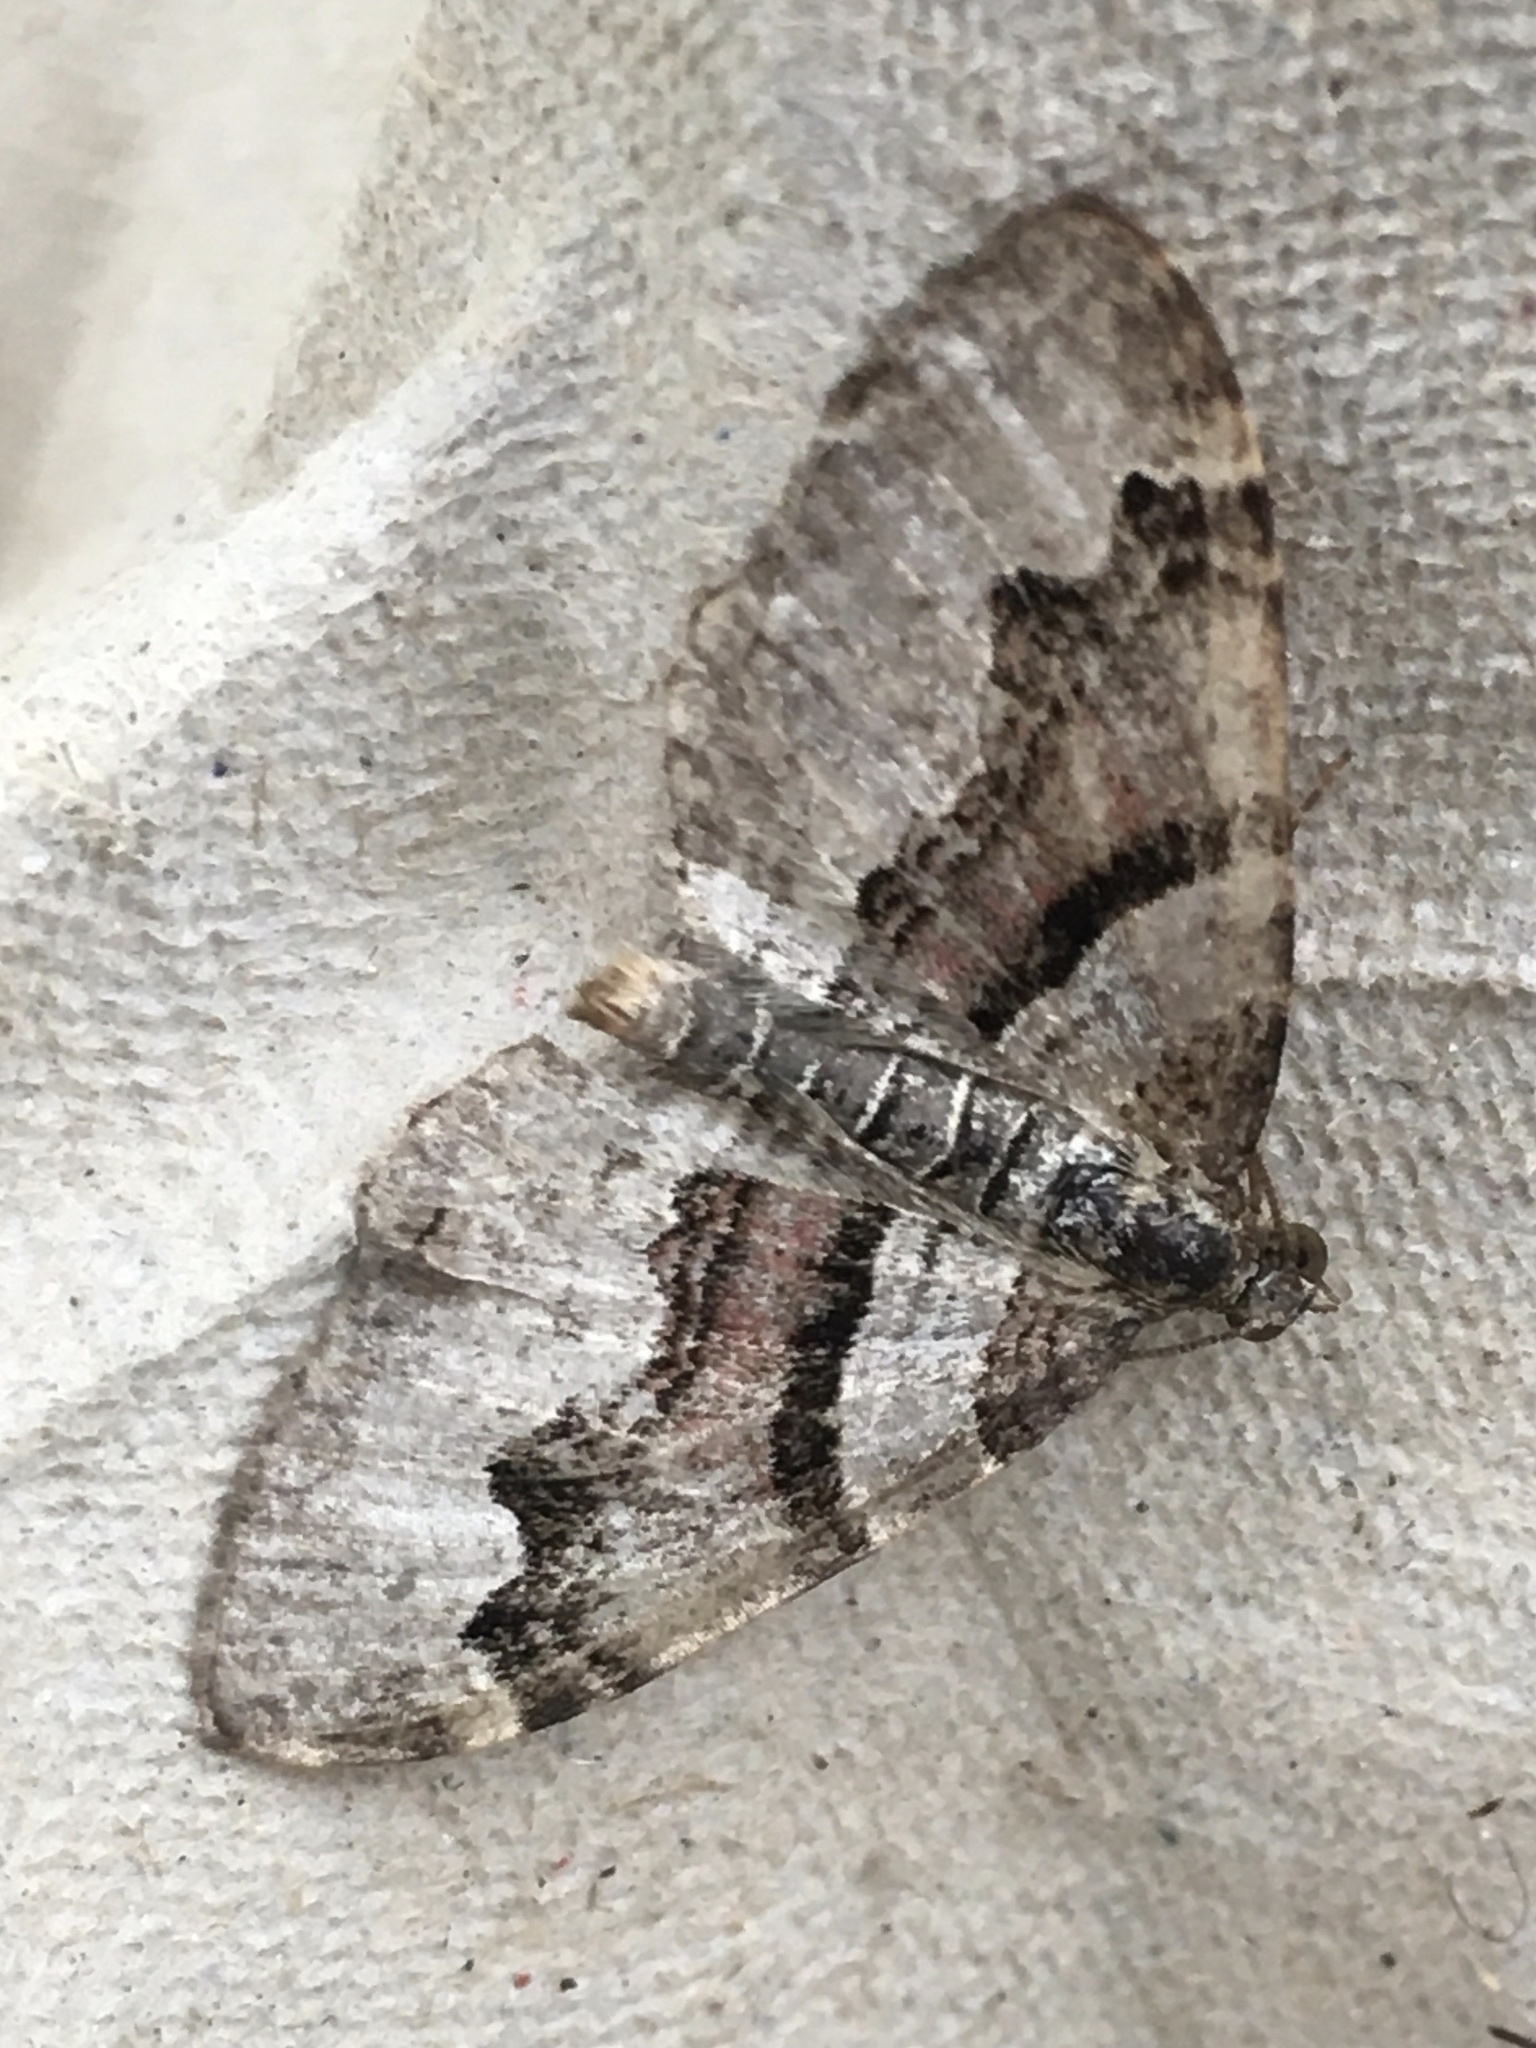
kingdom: Animalia
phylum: Arthropoda
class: Insecta
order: Lepidoptera
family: Geometridae
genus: Xanthorhoe
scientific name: Xanthorhoe designata
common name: Flame carpet
